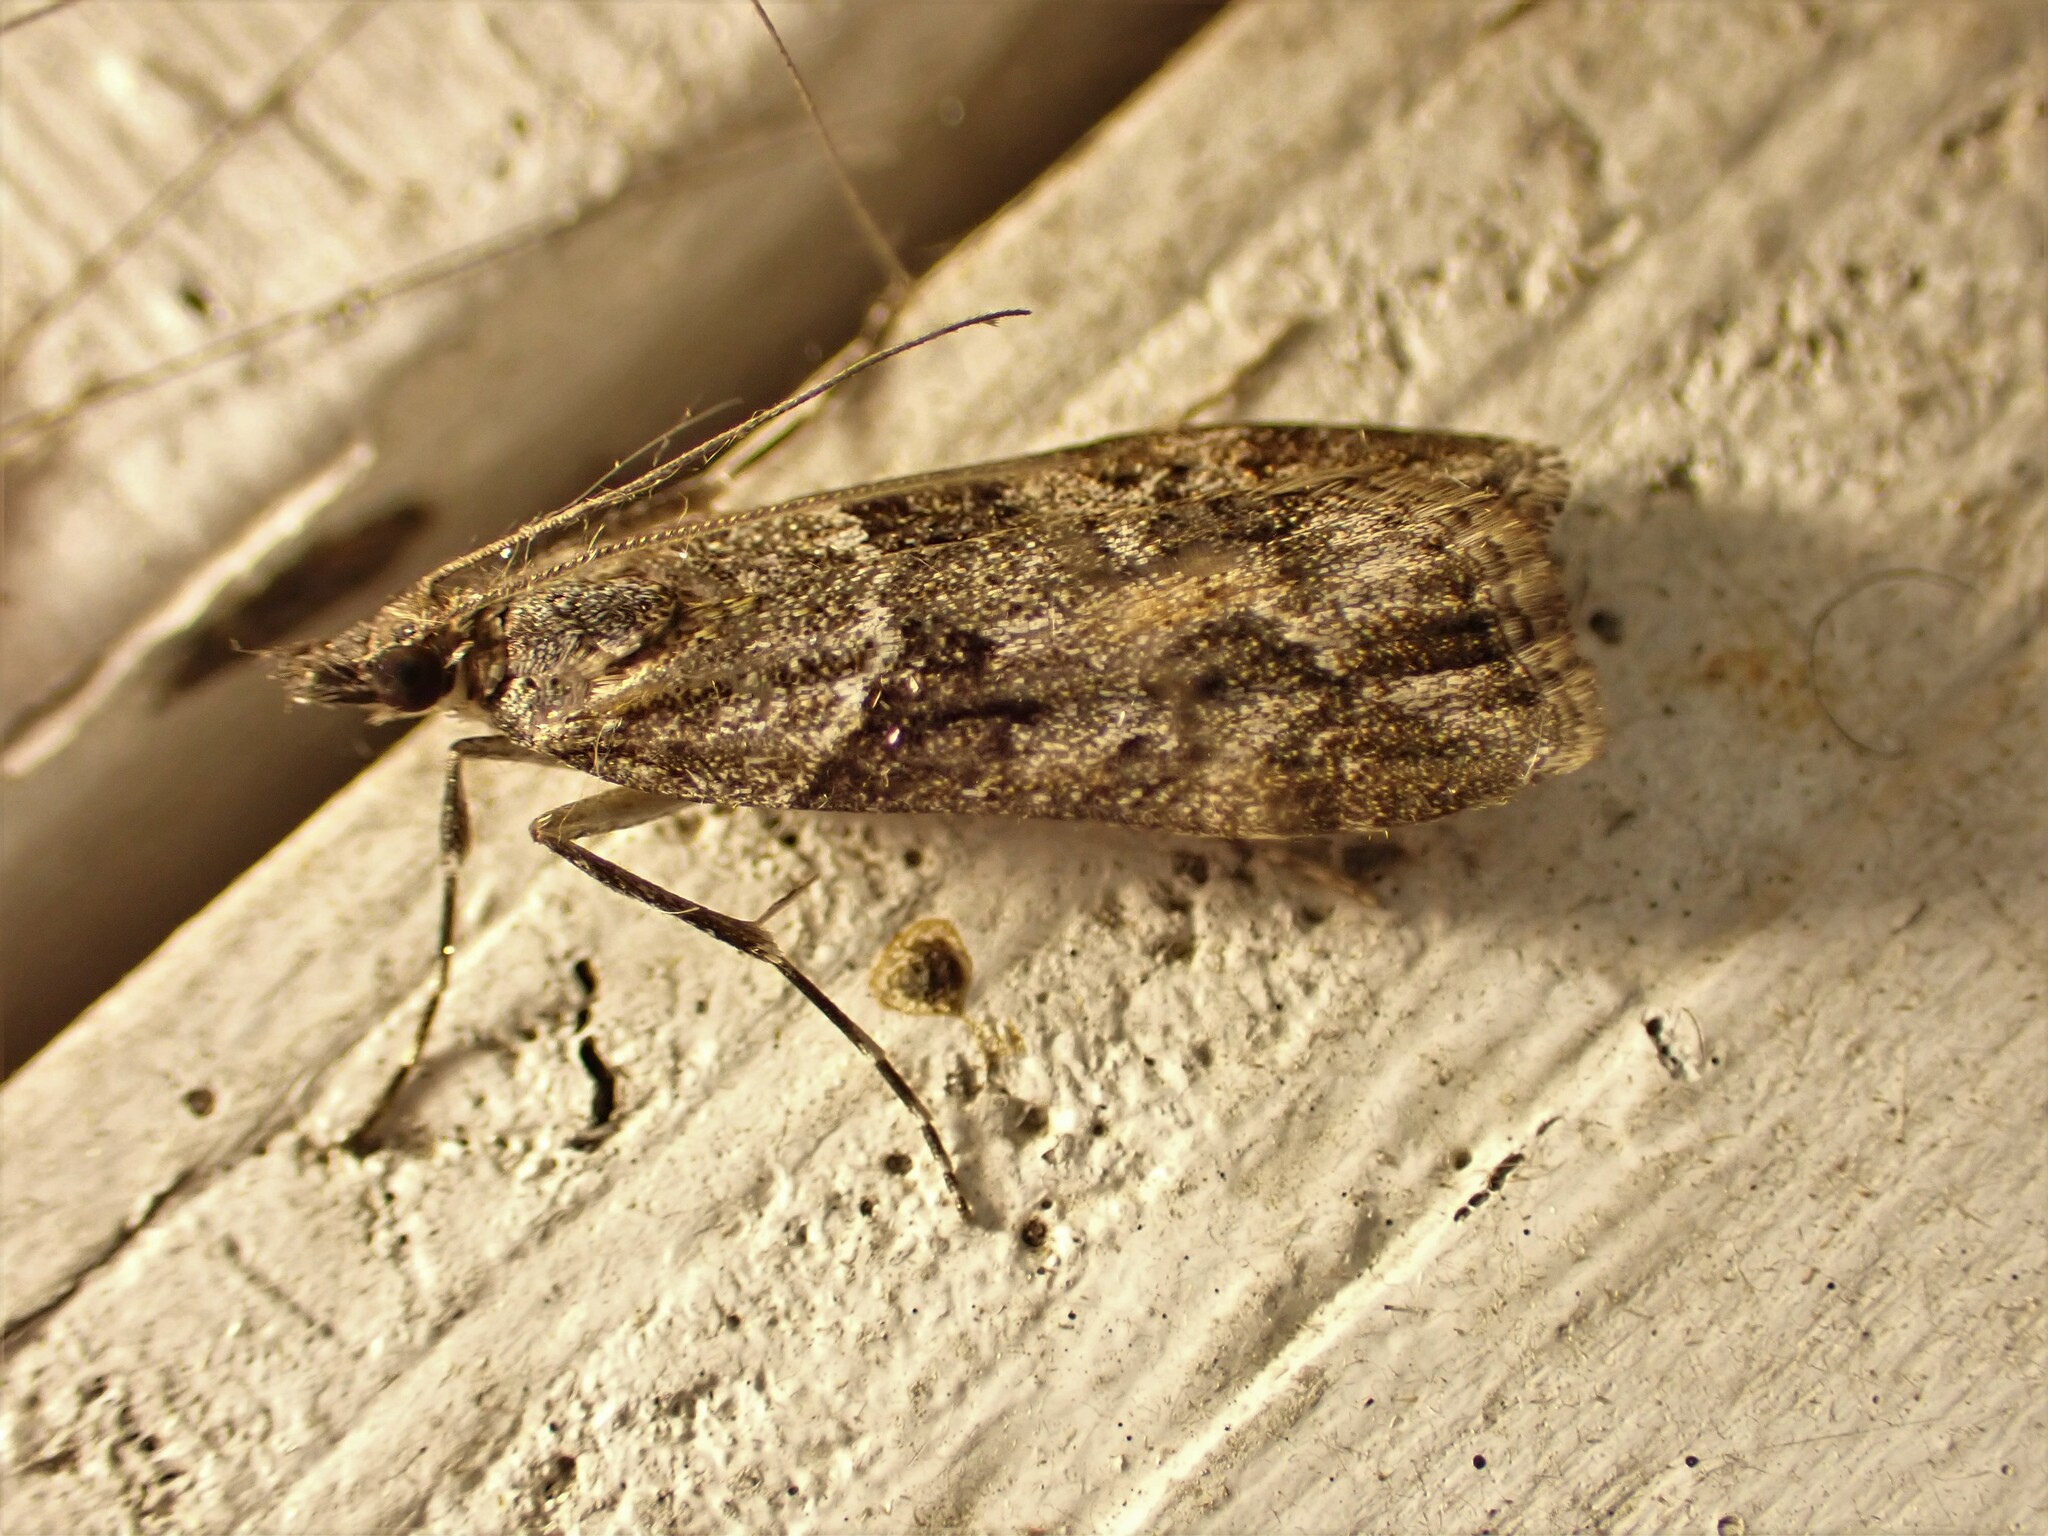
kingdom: Animalia
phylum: Arthropoda
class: Insecta
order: Lepidoptera
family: Crambidae
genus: Eudonia
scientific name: Eudonia submarginalis
